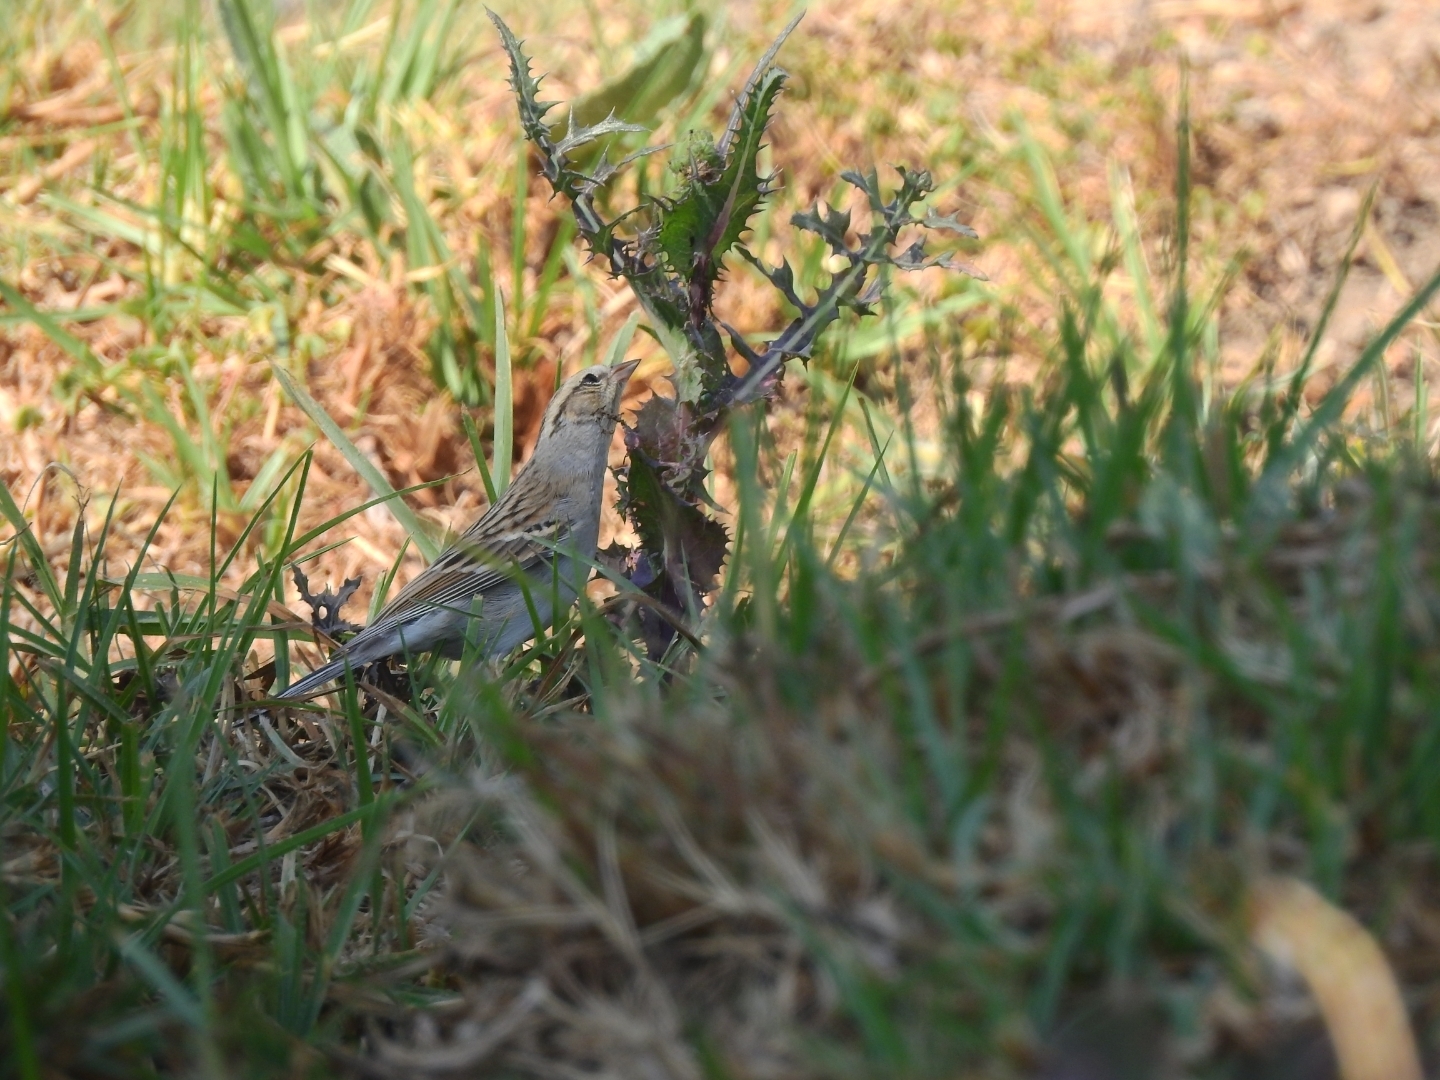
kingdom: Animalia
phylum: Chordata
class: Aves
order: Passeriformes
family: Passerellidae
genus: Spizella
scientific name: Spizella pallida
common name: Clay-colored sparrow
